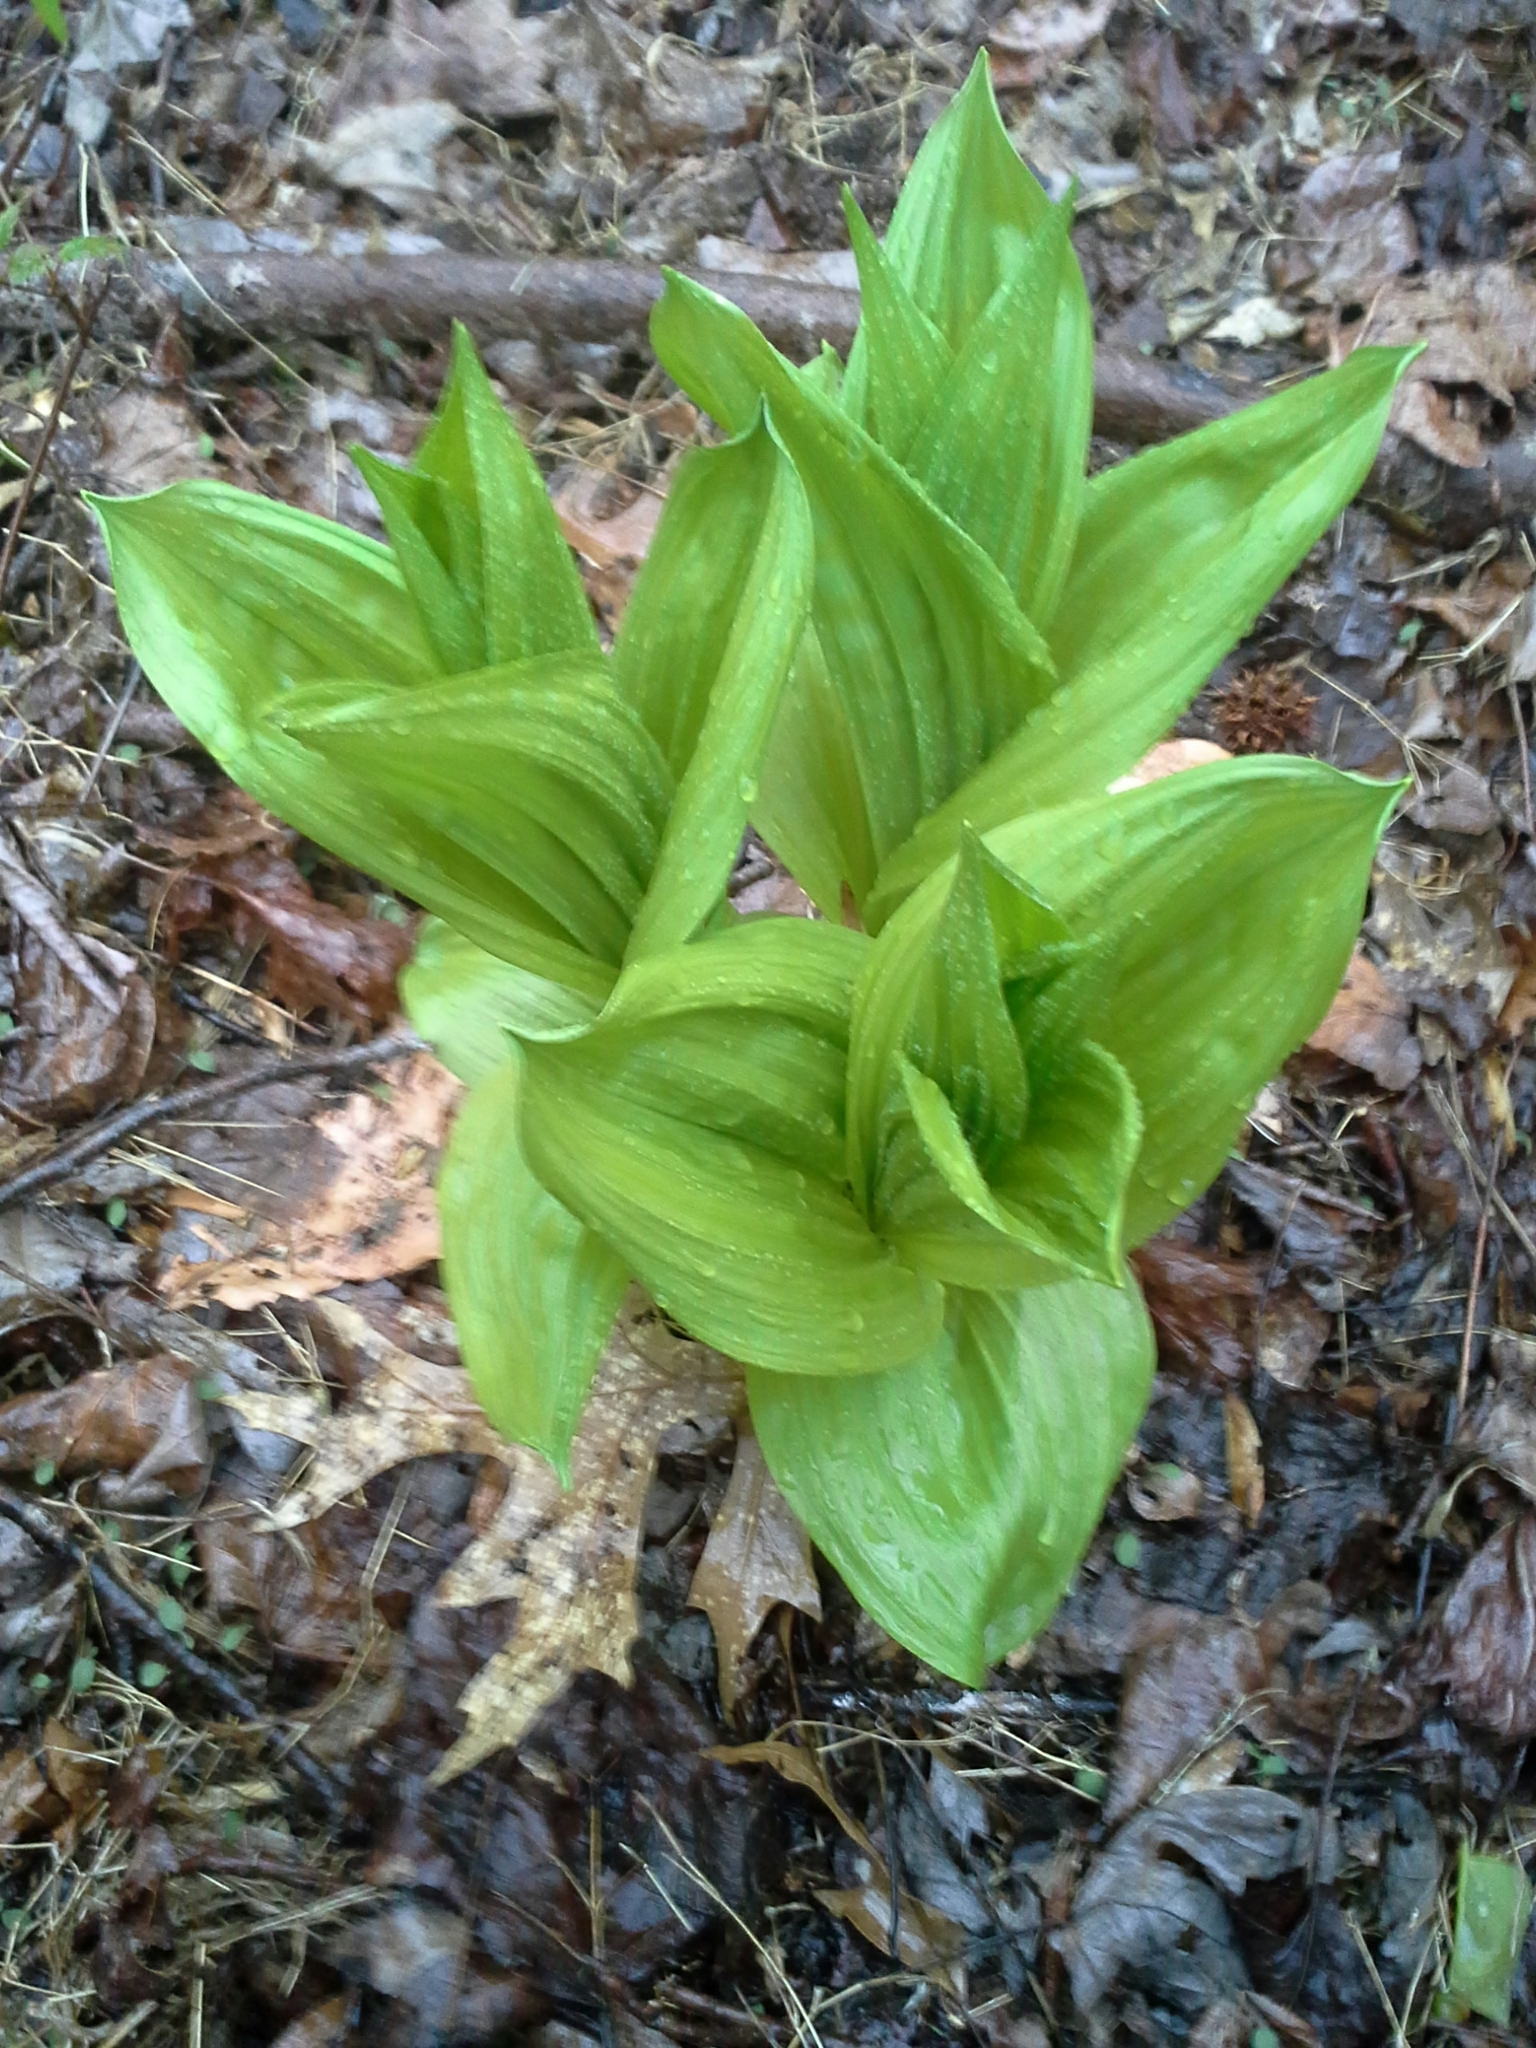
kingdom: Plantae
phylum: Tracheophyta
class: Liliopsida
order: Liliales
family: Melanthiaceae
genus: Veratrum
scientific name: Veratrum viride
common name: American false hellebore
